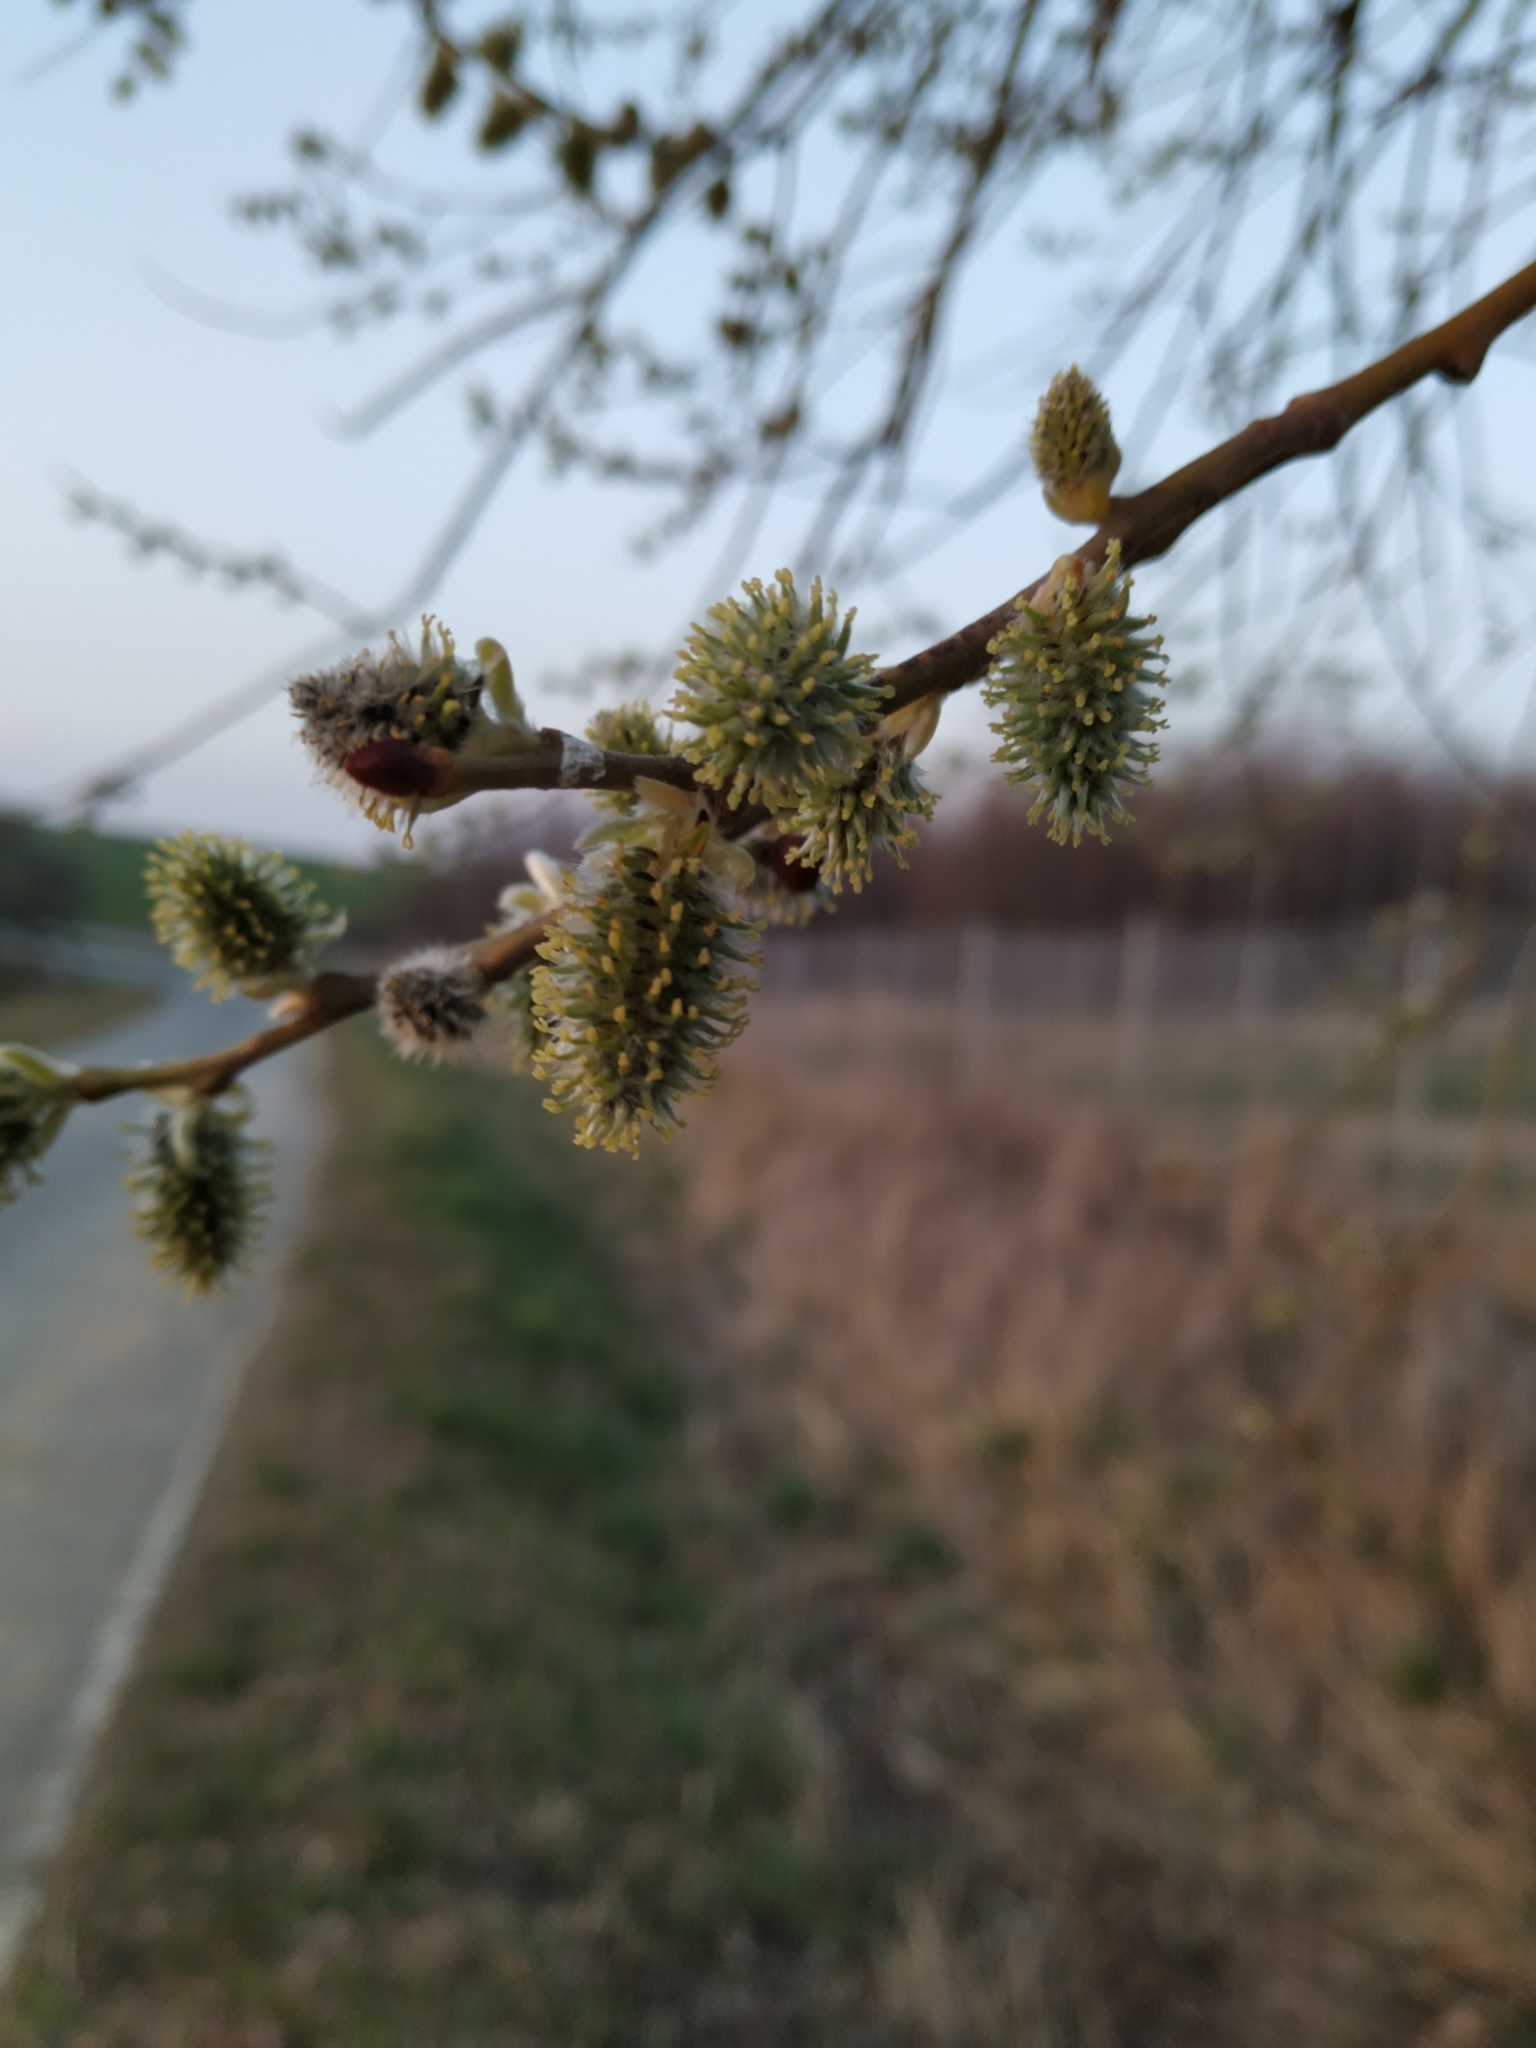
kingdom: Plantae
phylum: Tracheophyta
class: Magnoliopsida
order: Malpighiales
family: Salicaceae
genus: Salix
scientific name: Salix caprea
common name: Goat willow
